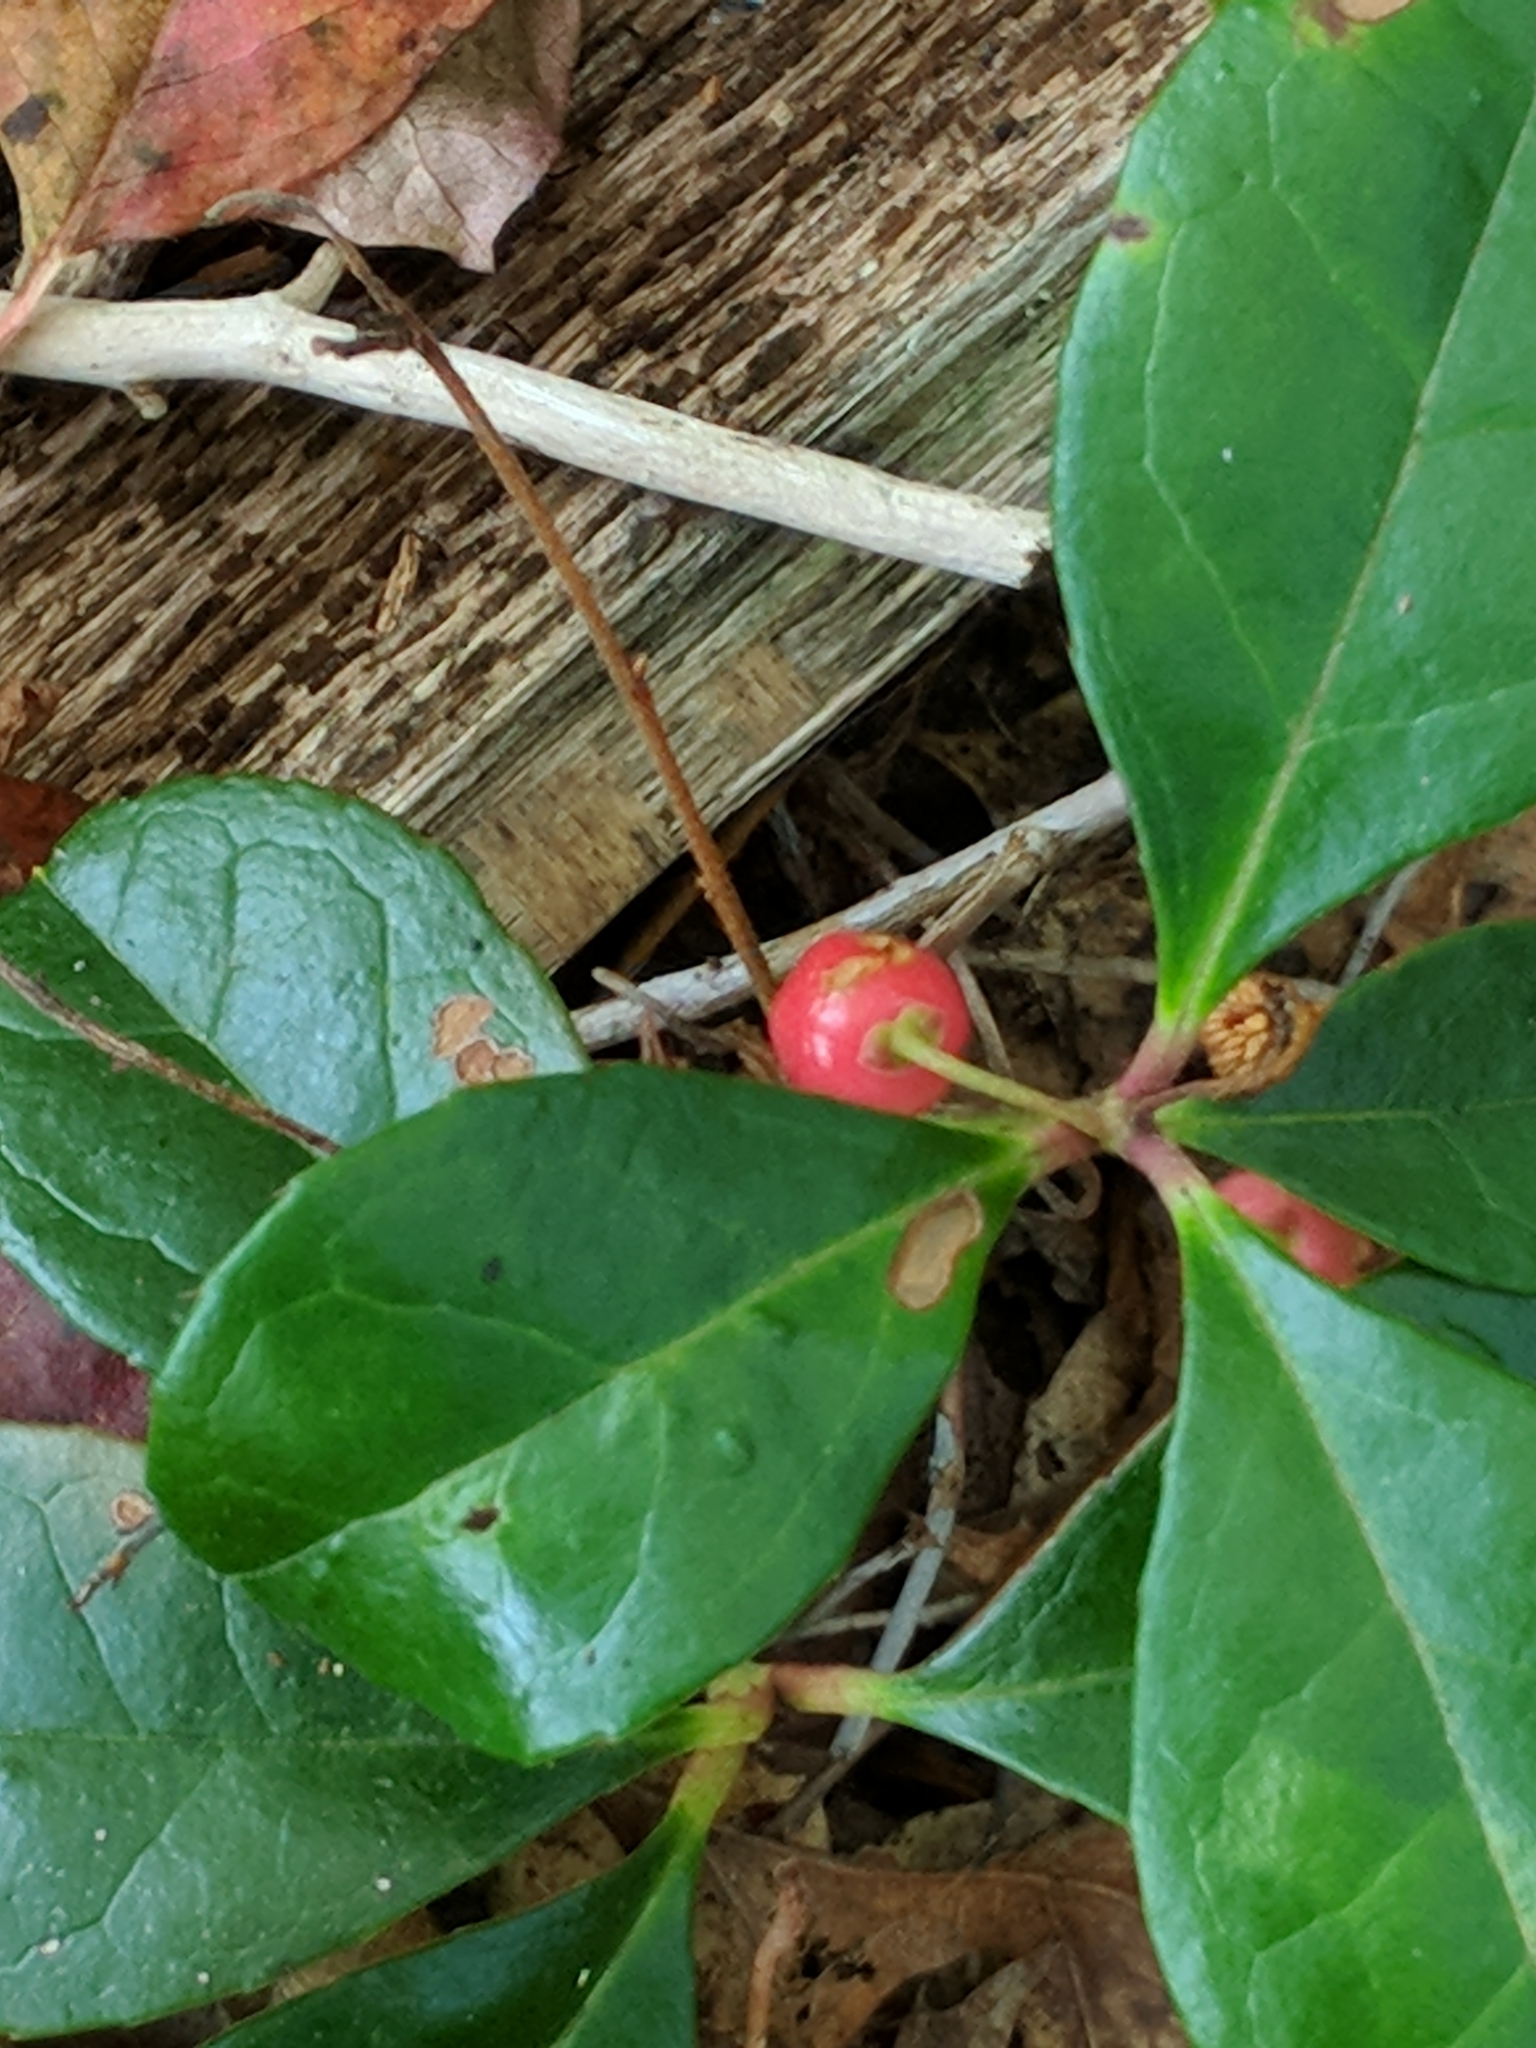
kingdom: Plantae
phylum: Tracheophyta
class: Magnoliopsida
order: Ericales
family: Ericaceae
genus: Gaultheria
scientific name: Gaultheria procumbens
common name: Checkerberry
